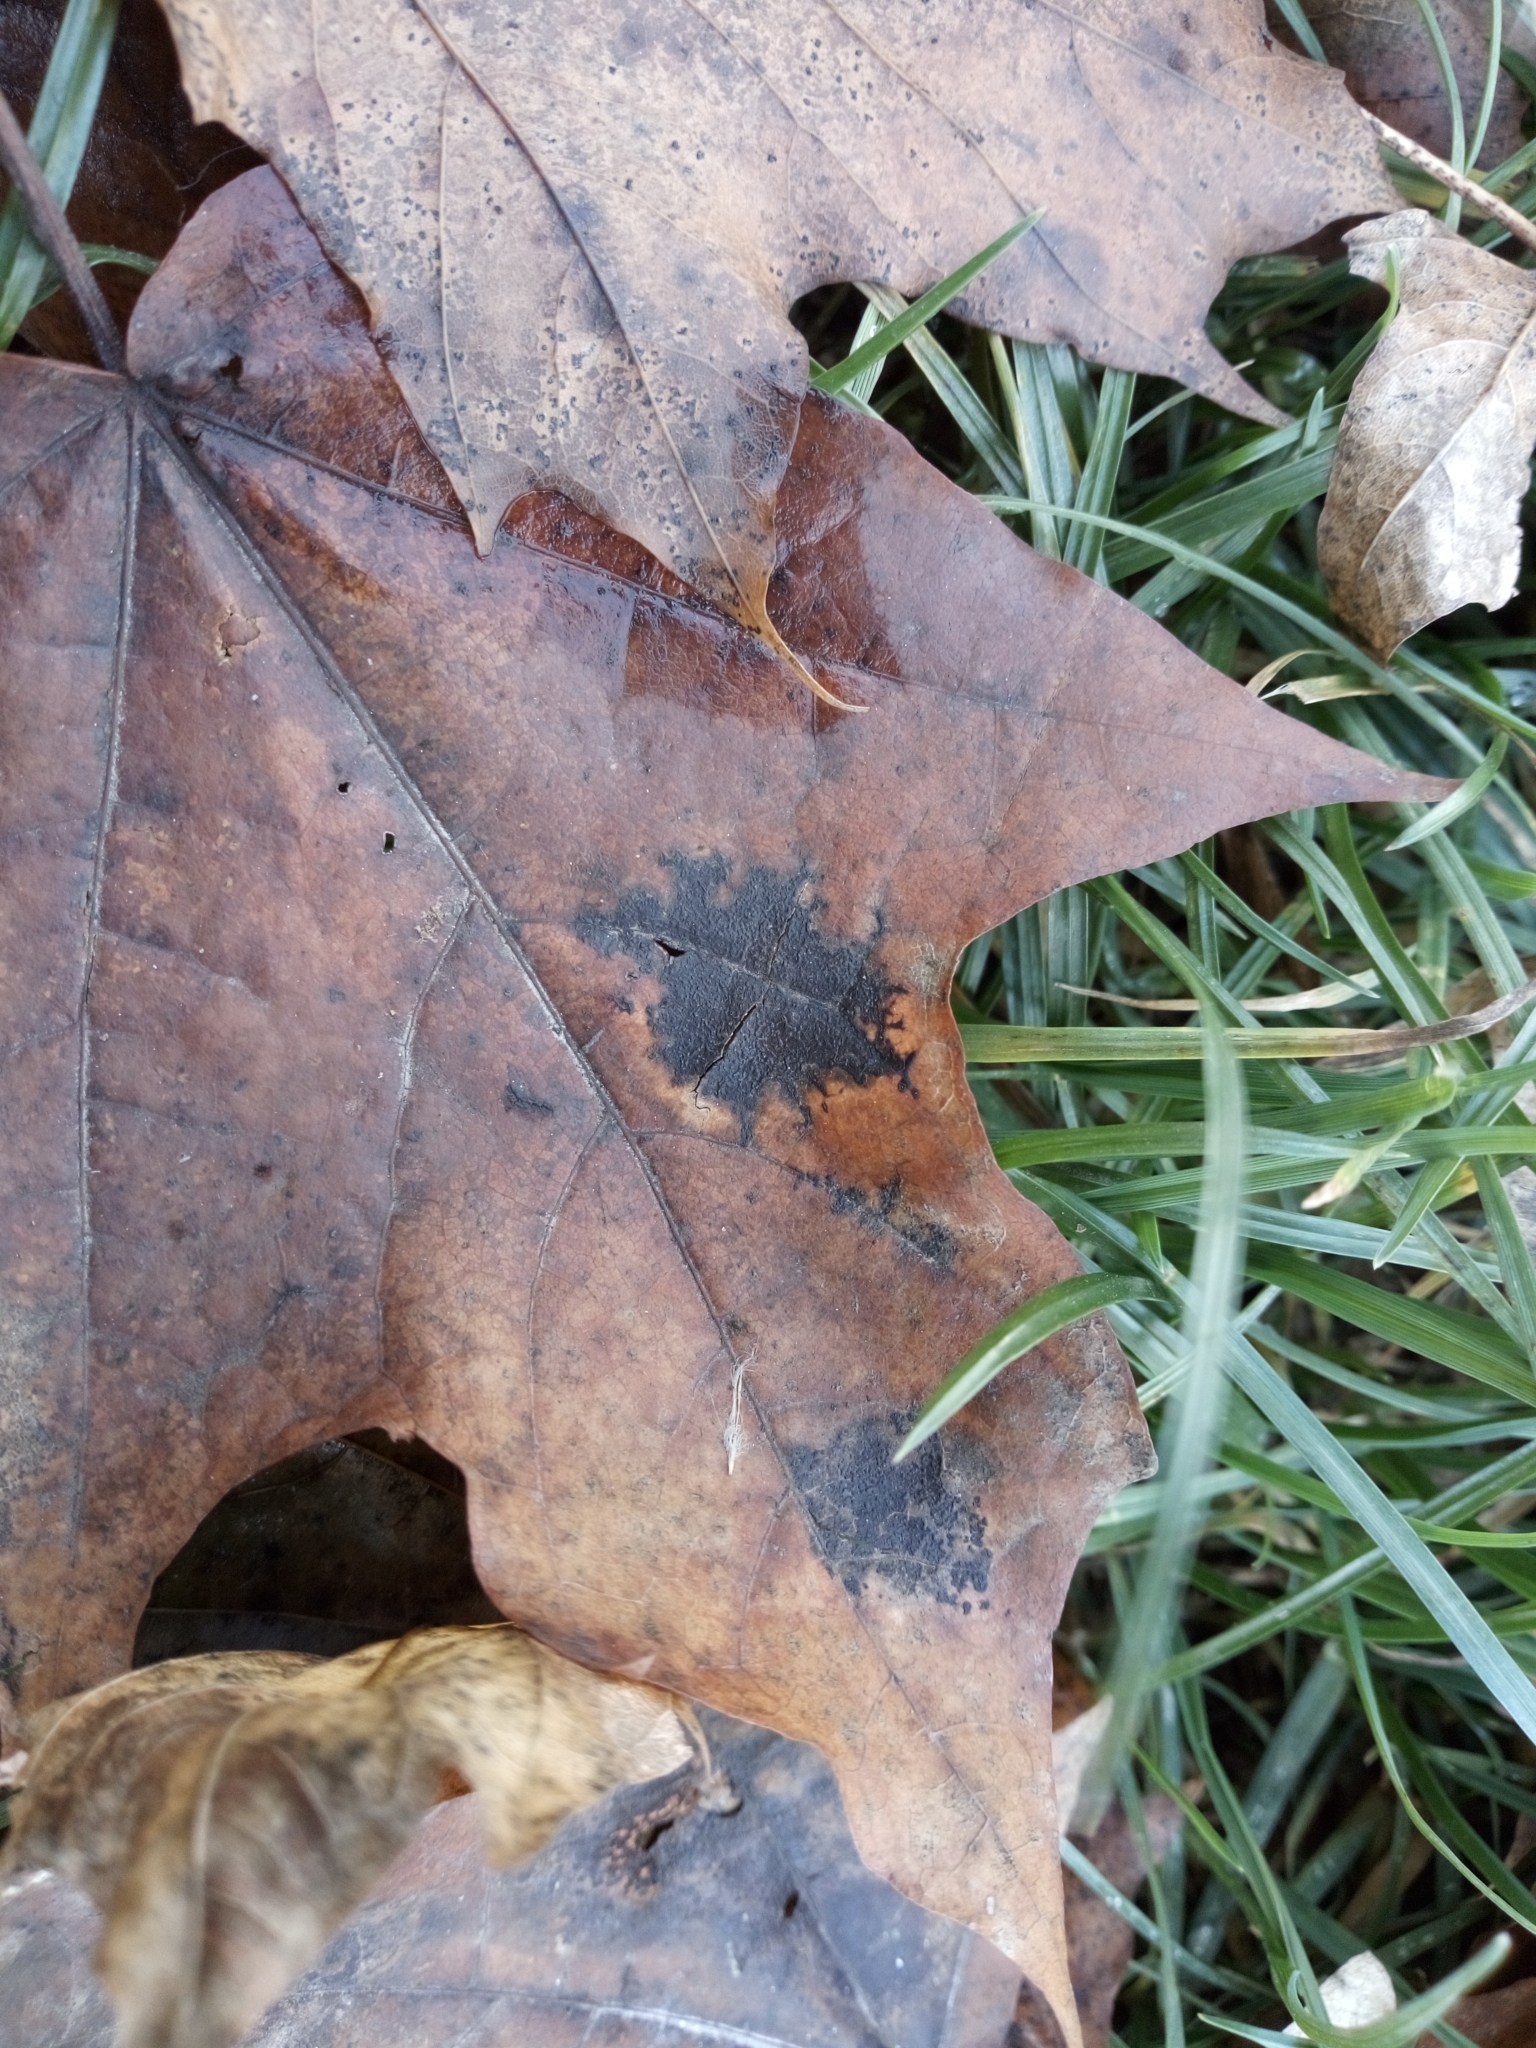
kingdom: Fungi
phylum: Ascomycota
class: Leotiomycetes
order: Rhytismatales
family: Rhytismataceae
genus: Rhytisma
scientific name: Rhytisma acerinum
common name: European tar spot
